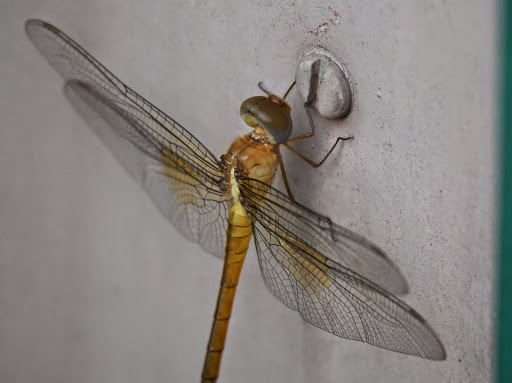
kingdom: Animalia
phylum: Arthropoda
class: Insecta
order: Odonata
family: Libellulidae
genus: Tholymis
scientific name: Tholymis tillarga
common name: Coral-tailed cloud wing
